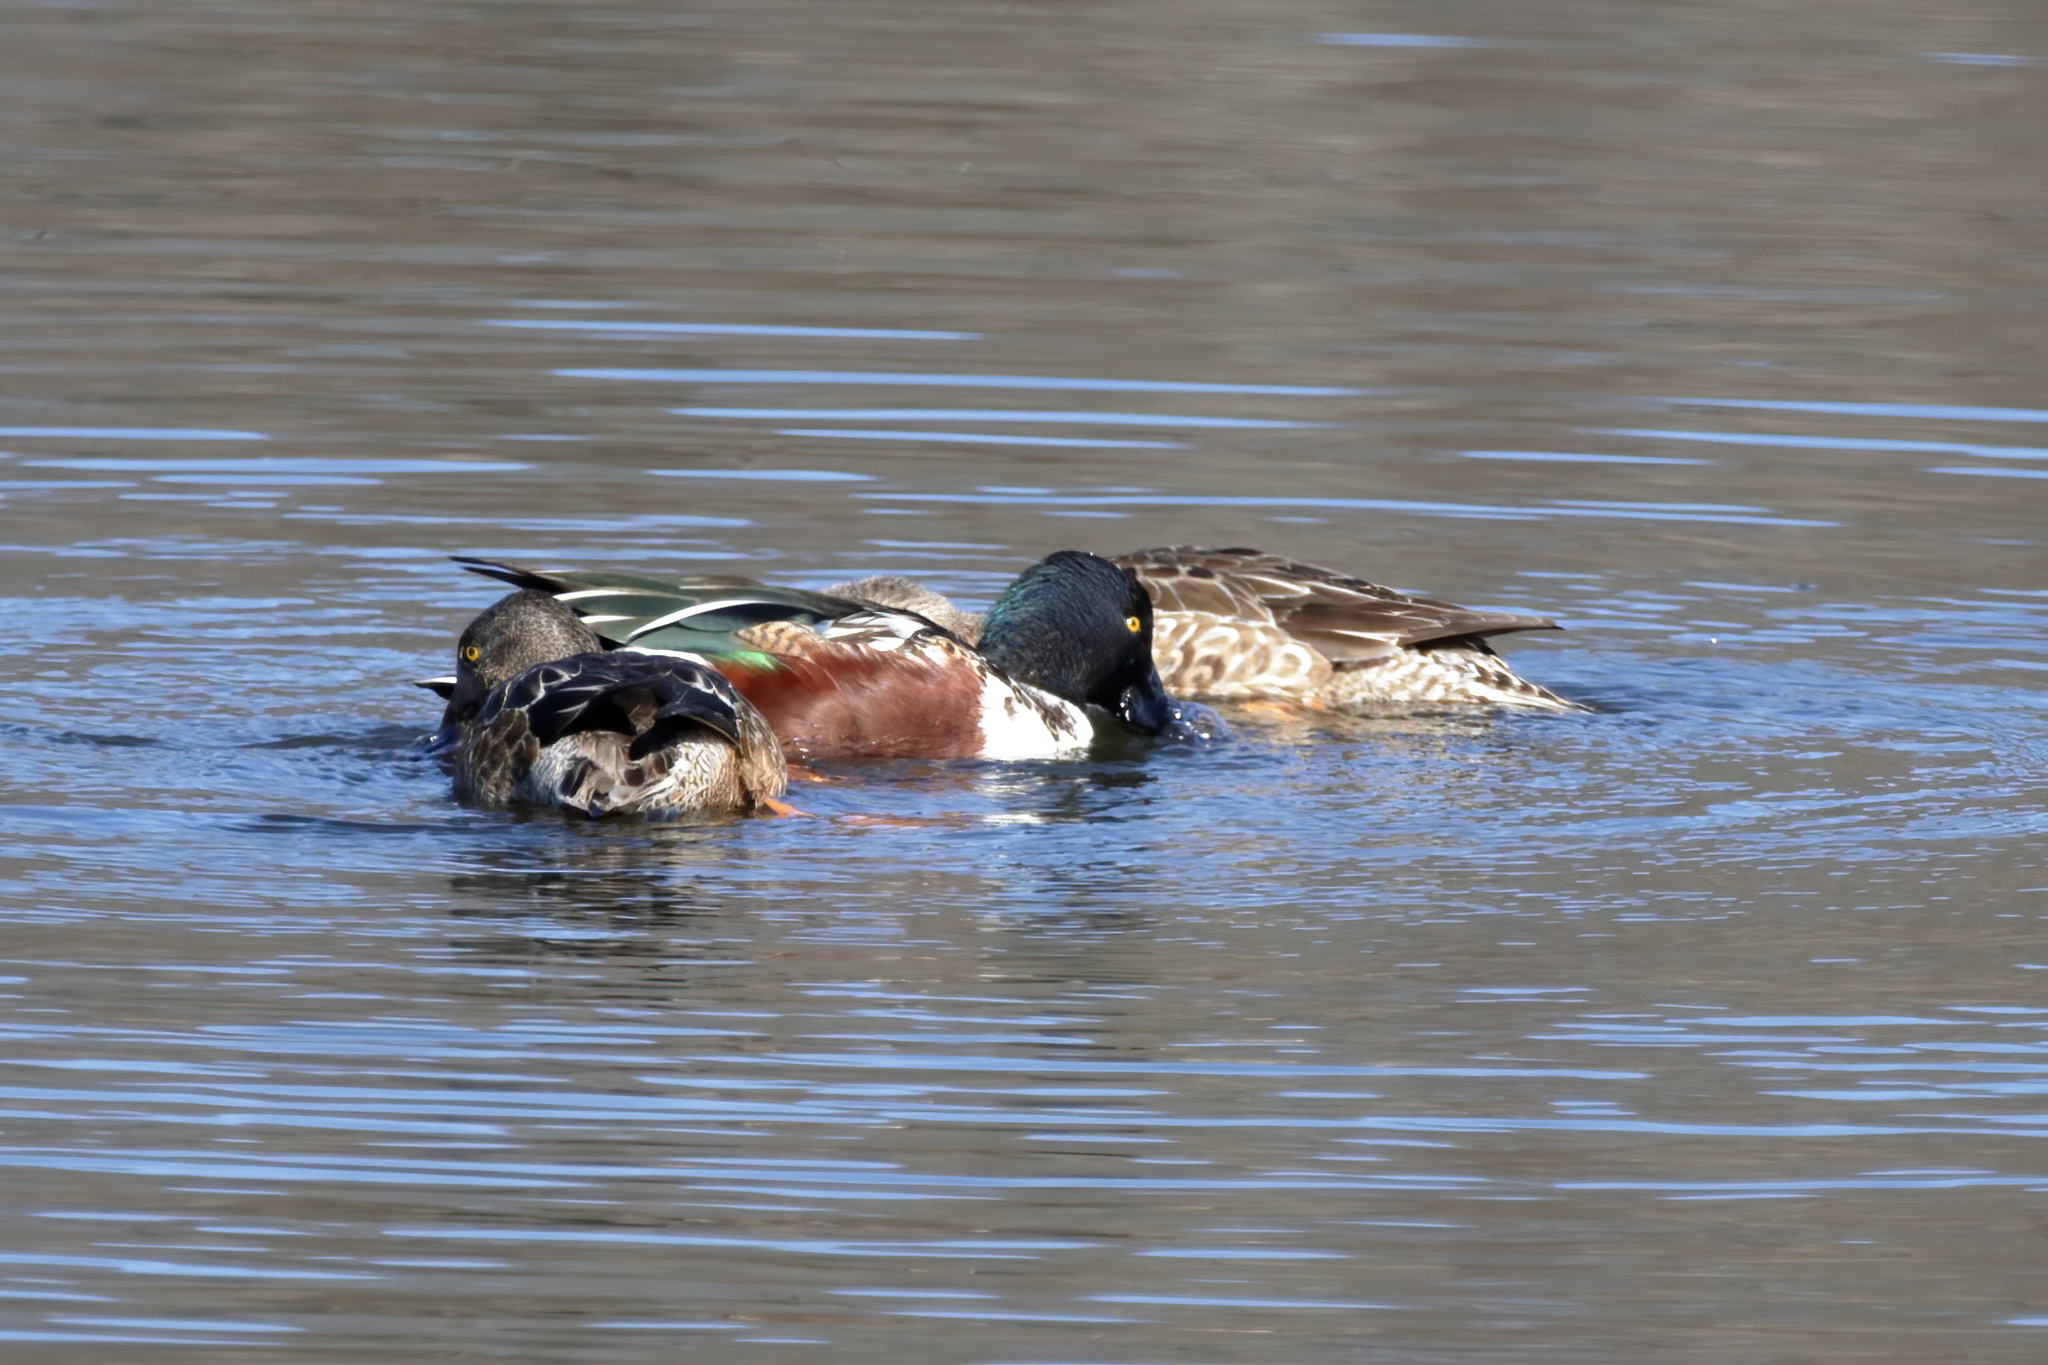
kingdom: Animalia
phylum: Chordata
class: Aves
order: Anseriformes
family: Anatidae
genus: Spatula
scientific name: Spatula clypeata
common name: Northern shoveler
